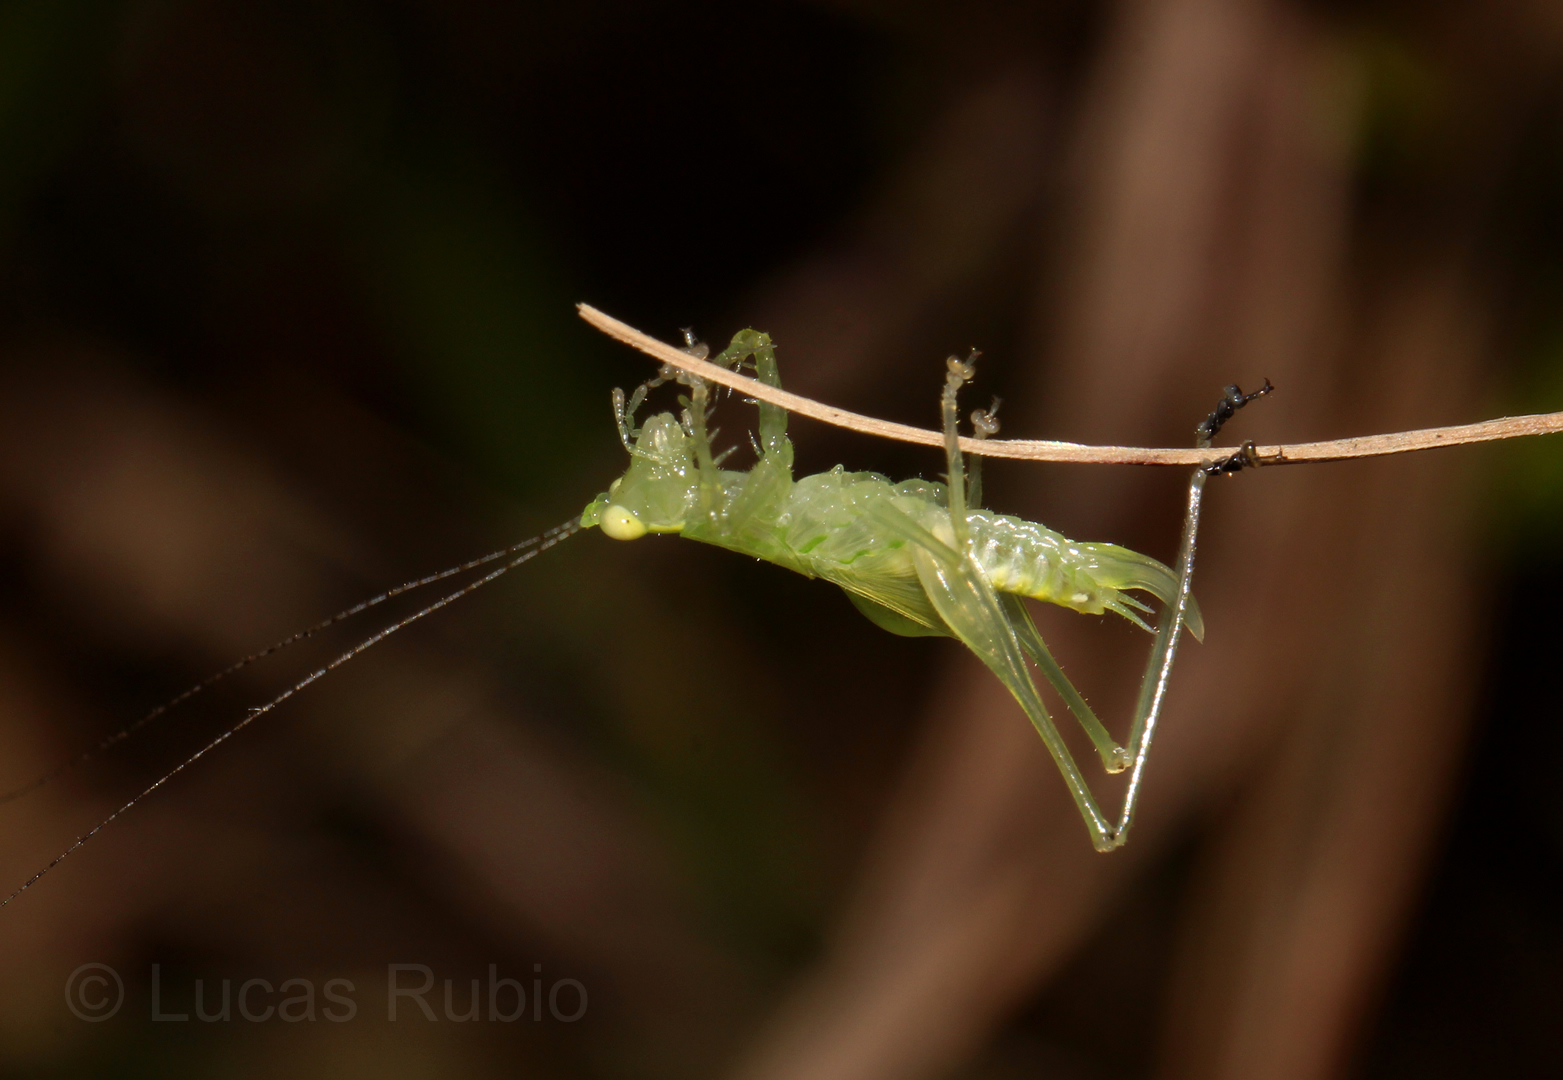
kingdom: Animalia
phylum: Arthropoda
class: Insecta
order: Orthoptera
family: Tettigoniidae
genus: Phlugis
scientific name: Phlugis proseni
